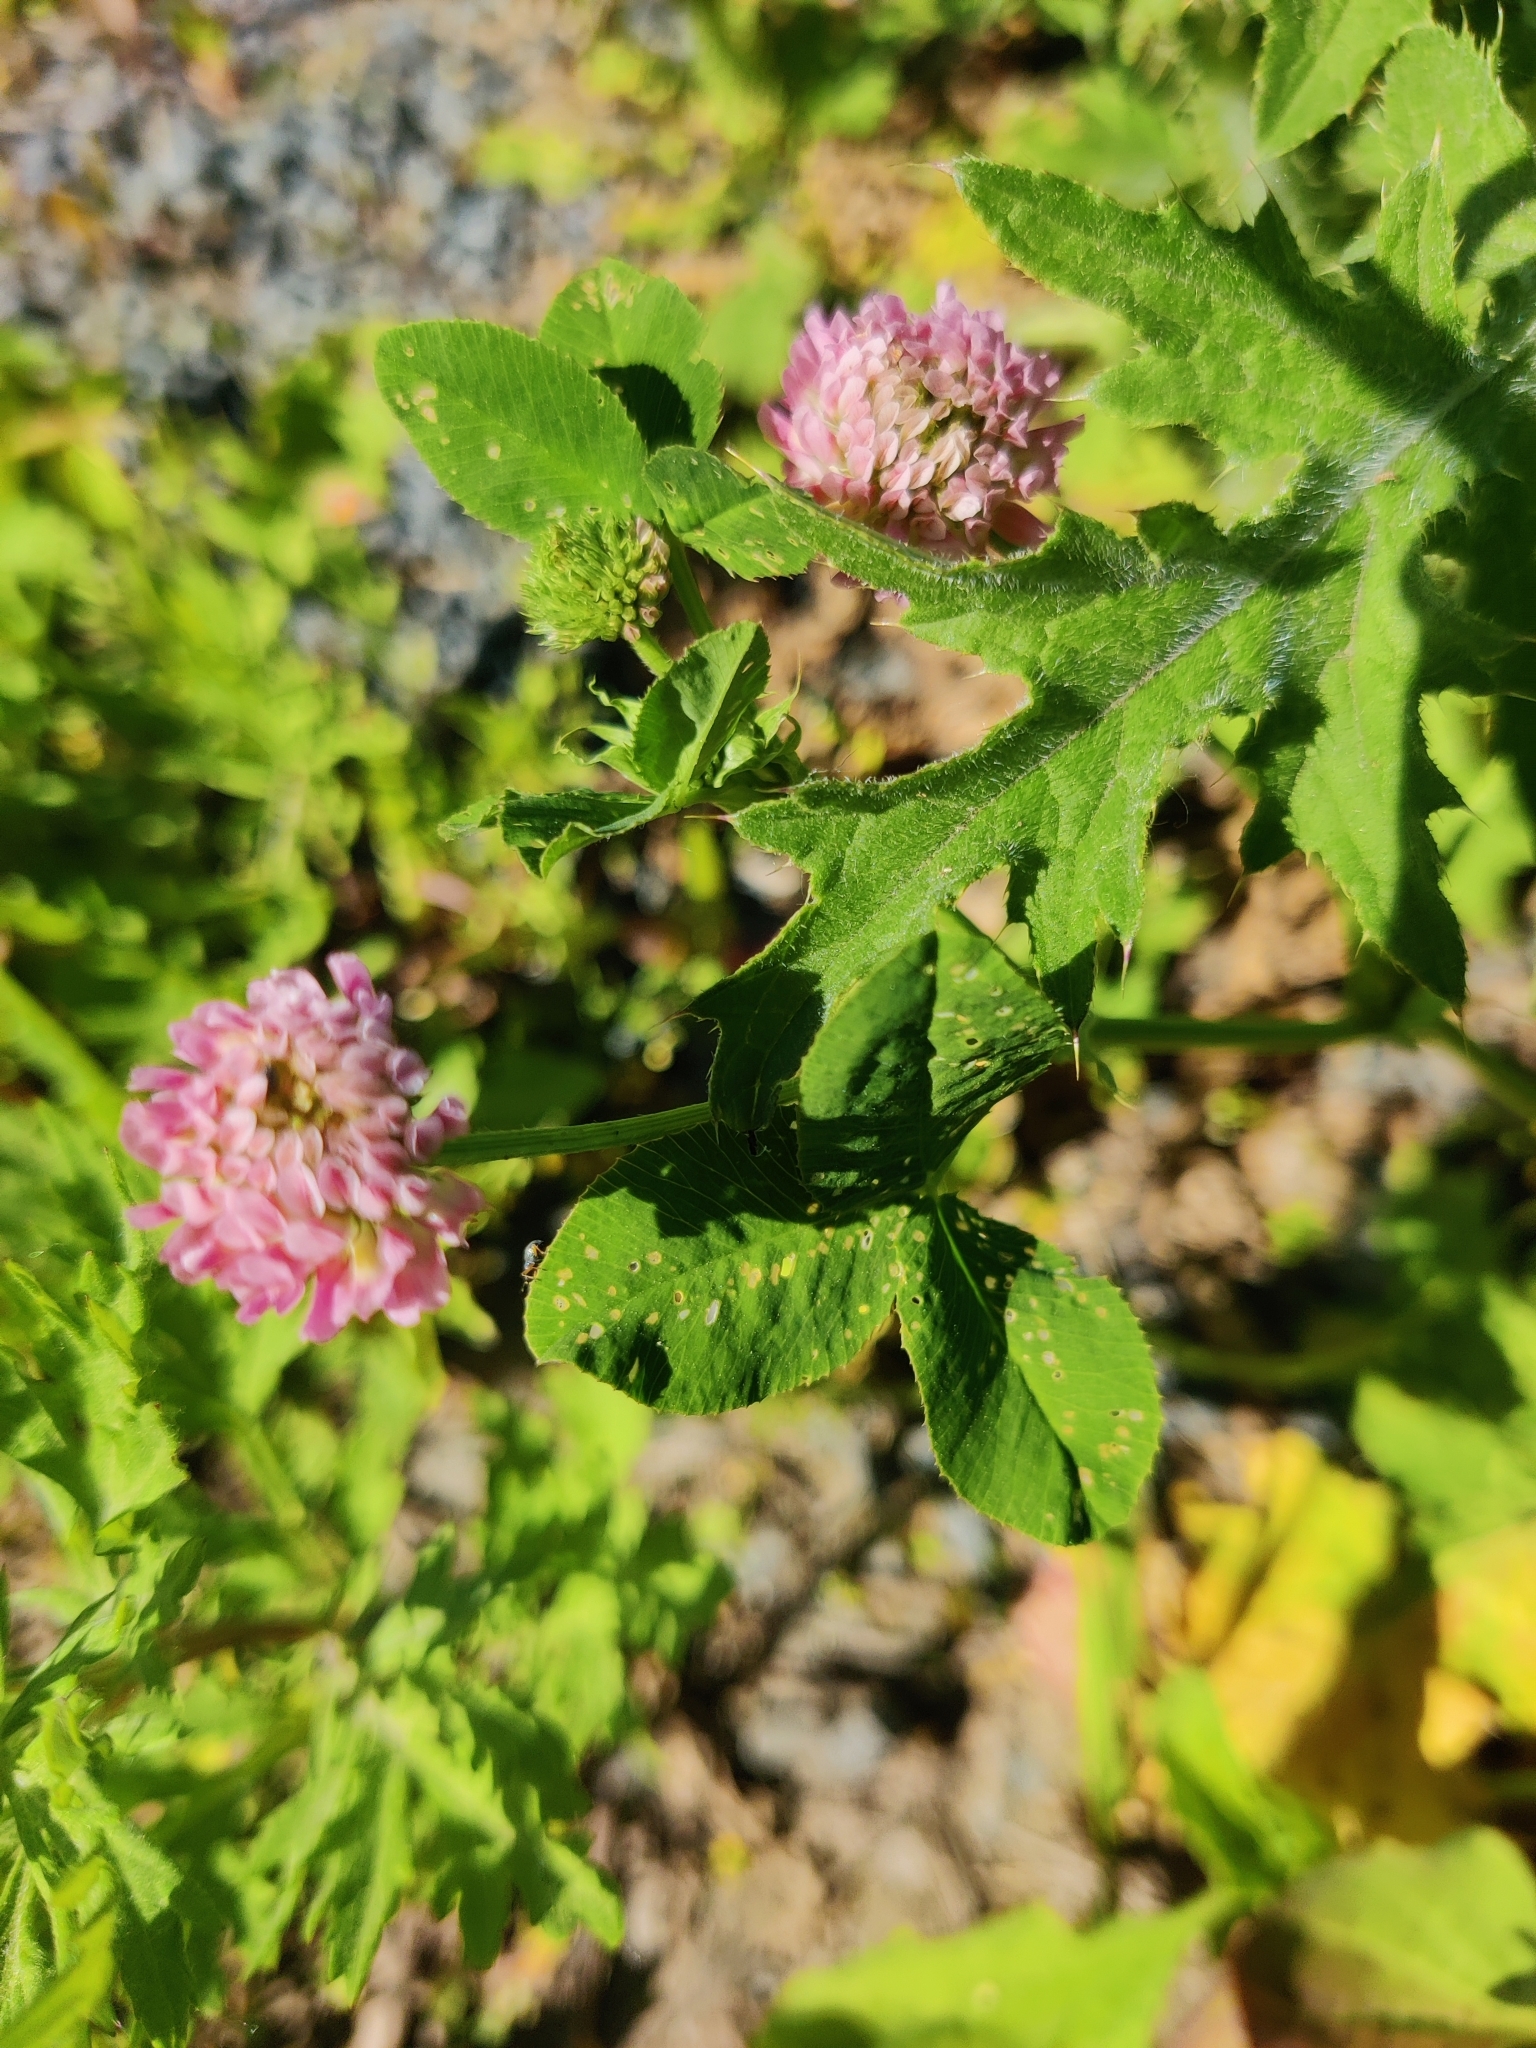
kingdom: Plantae
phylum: Tracheophyta
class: Magnoliopsida
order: Fabales
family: Fabaceae
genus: Trifolium
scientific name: Trifolium hybridum
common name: Alsike clover
